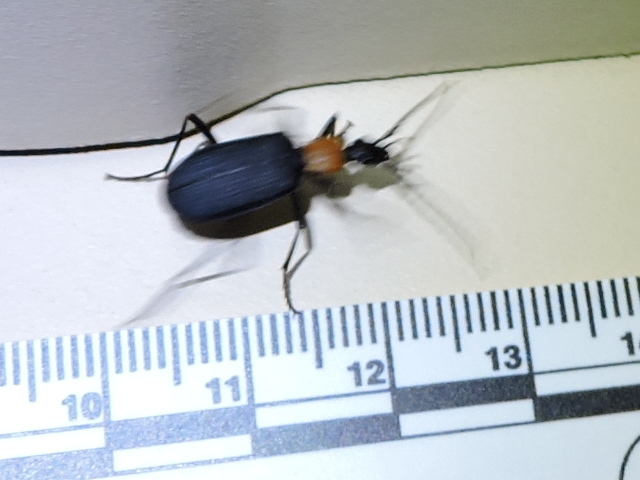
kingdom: Animalia
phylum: Arthropoda
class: Insecta
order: Coleoptera
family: Carabidae
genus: Galerita
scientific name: Galerita mexicana
